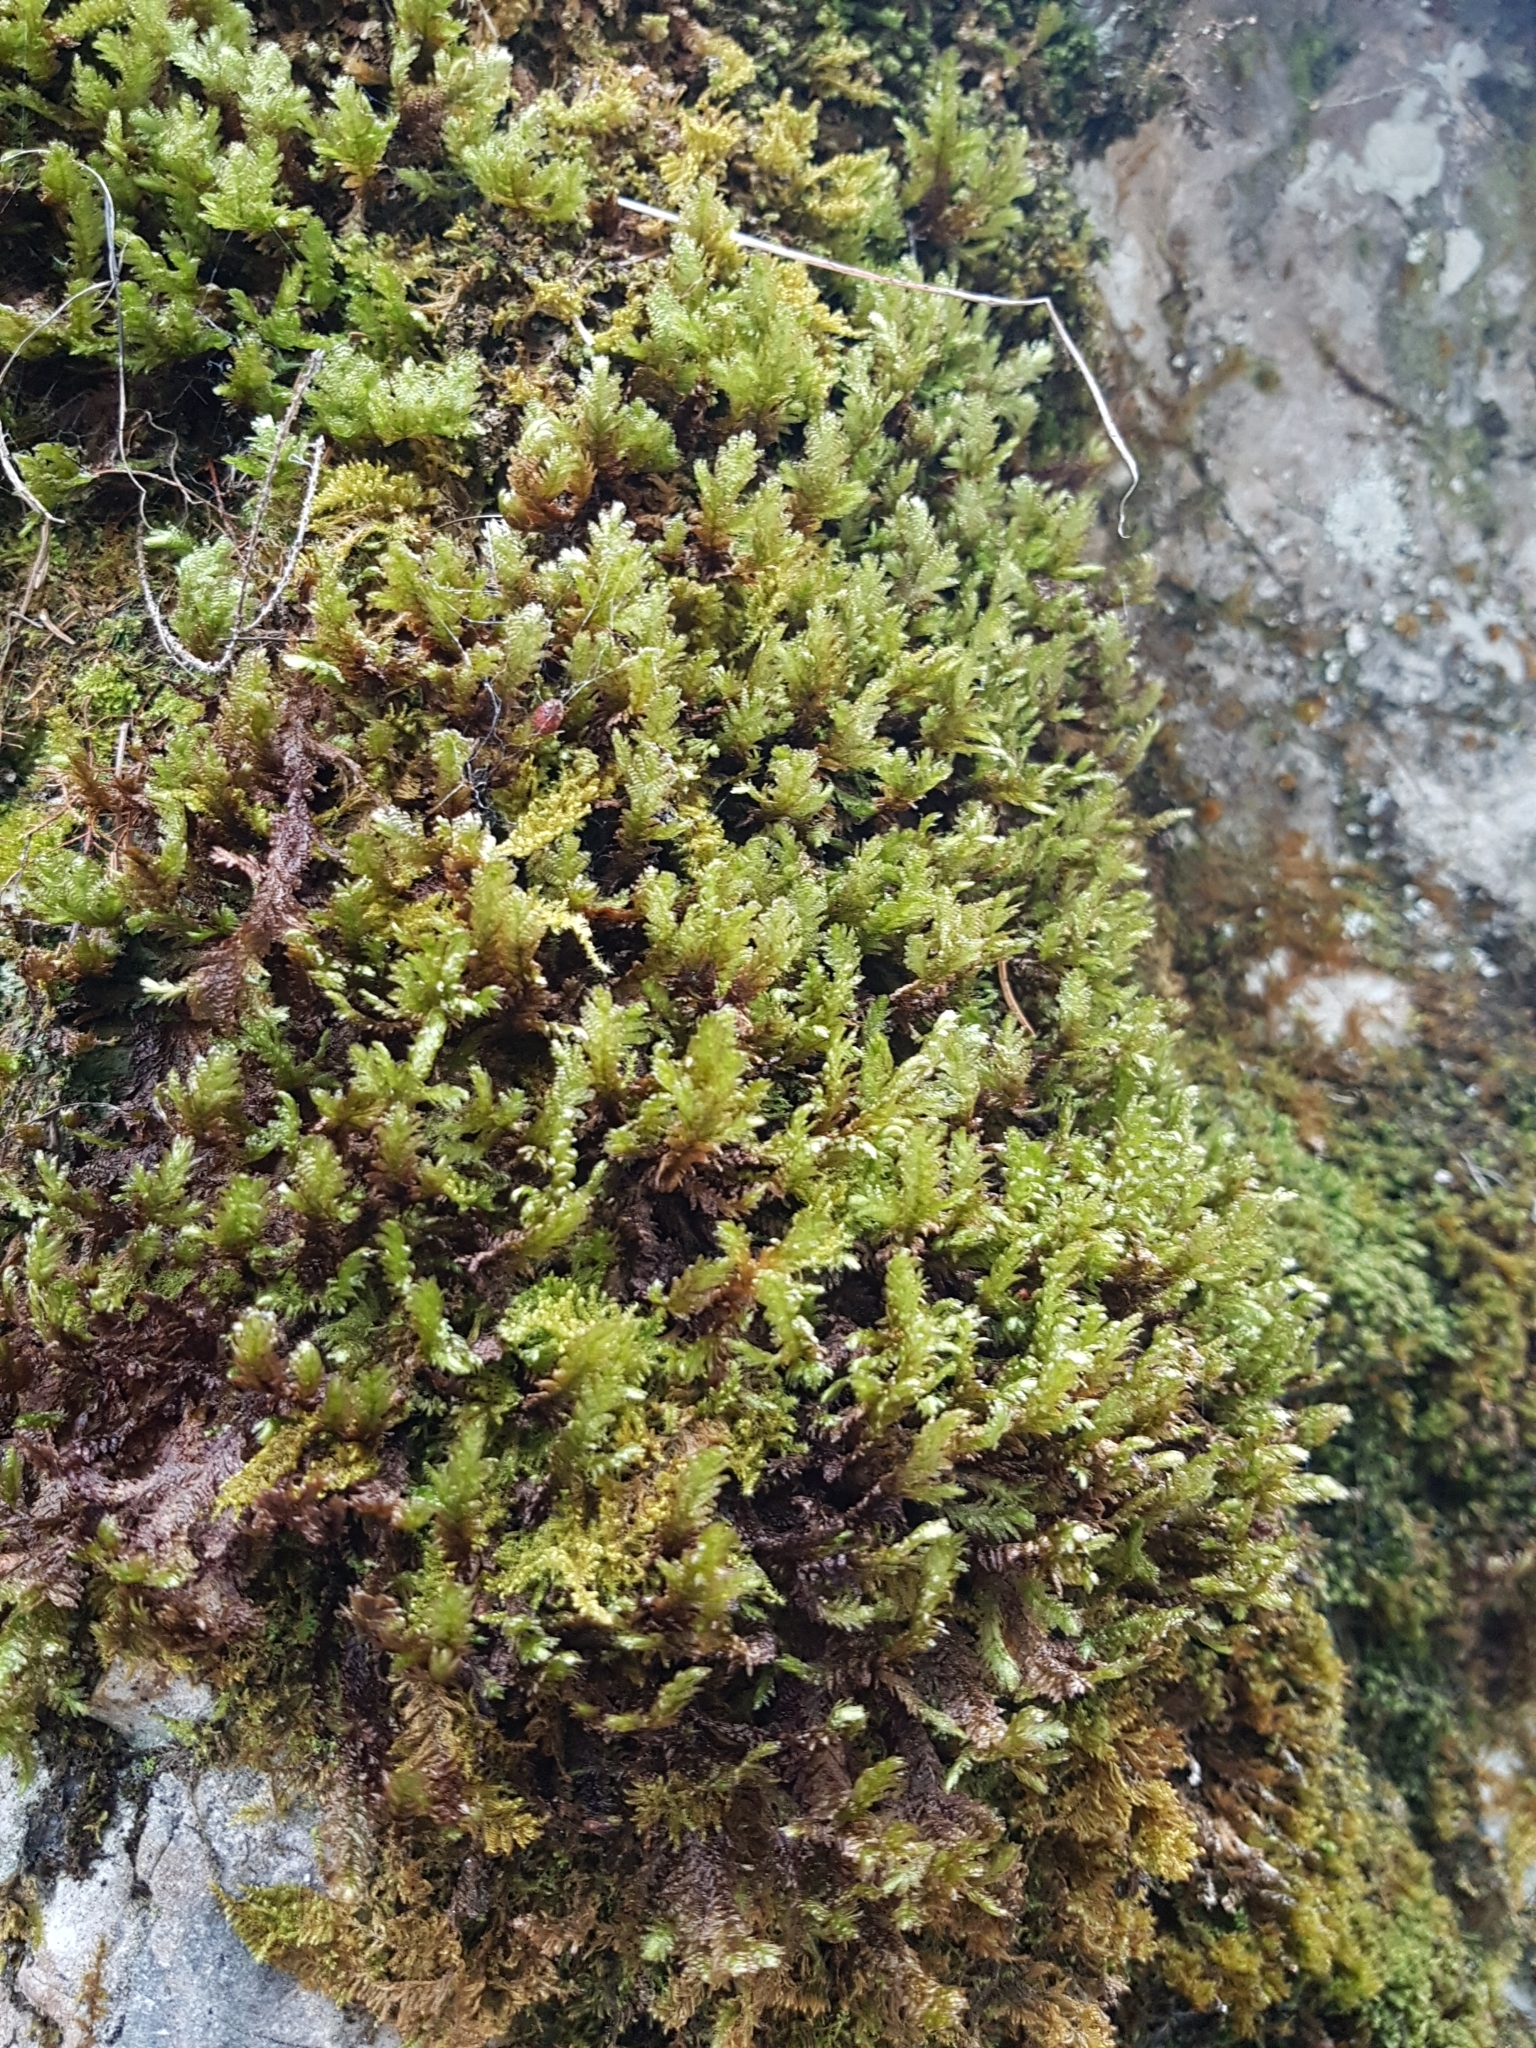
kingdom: Plantae
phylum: Bryophyta
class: Bryopsida
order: Hypnales
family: Neckeraceae
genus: Exsertotheca
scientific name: Exsertotheca crispa
